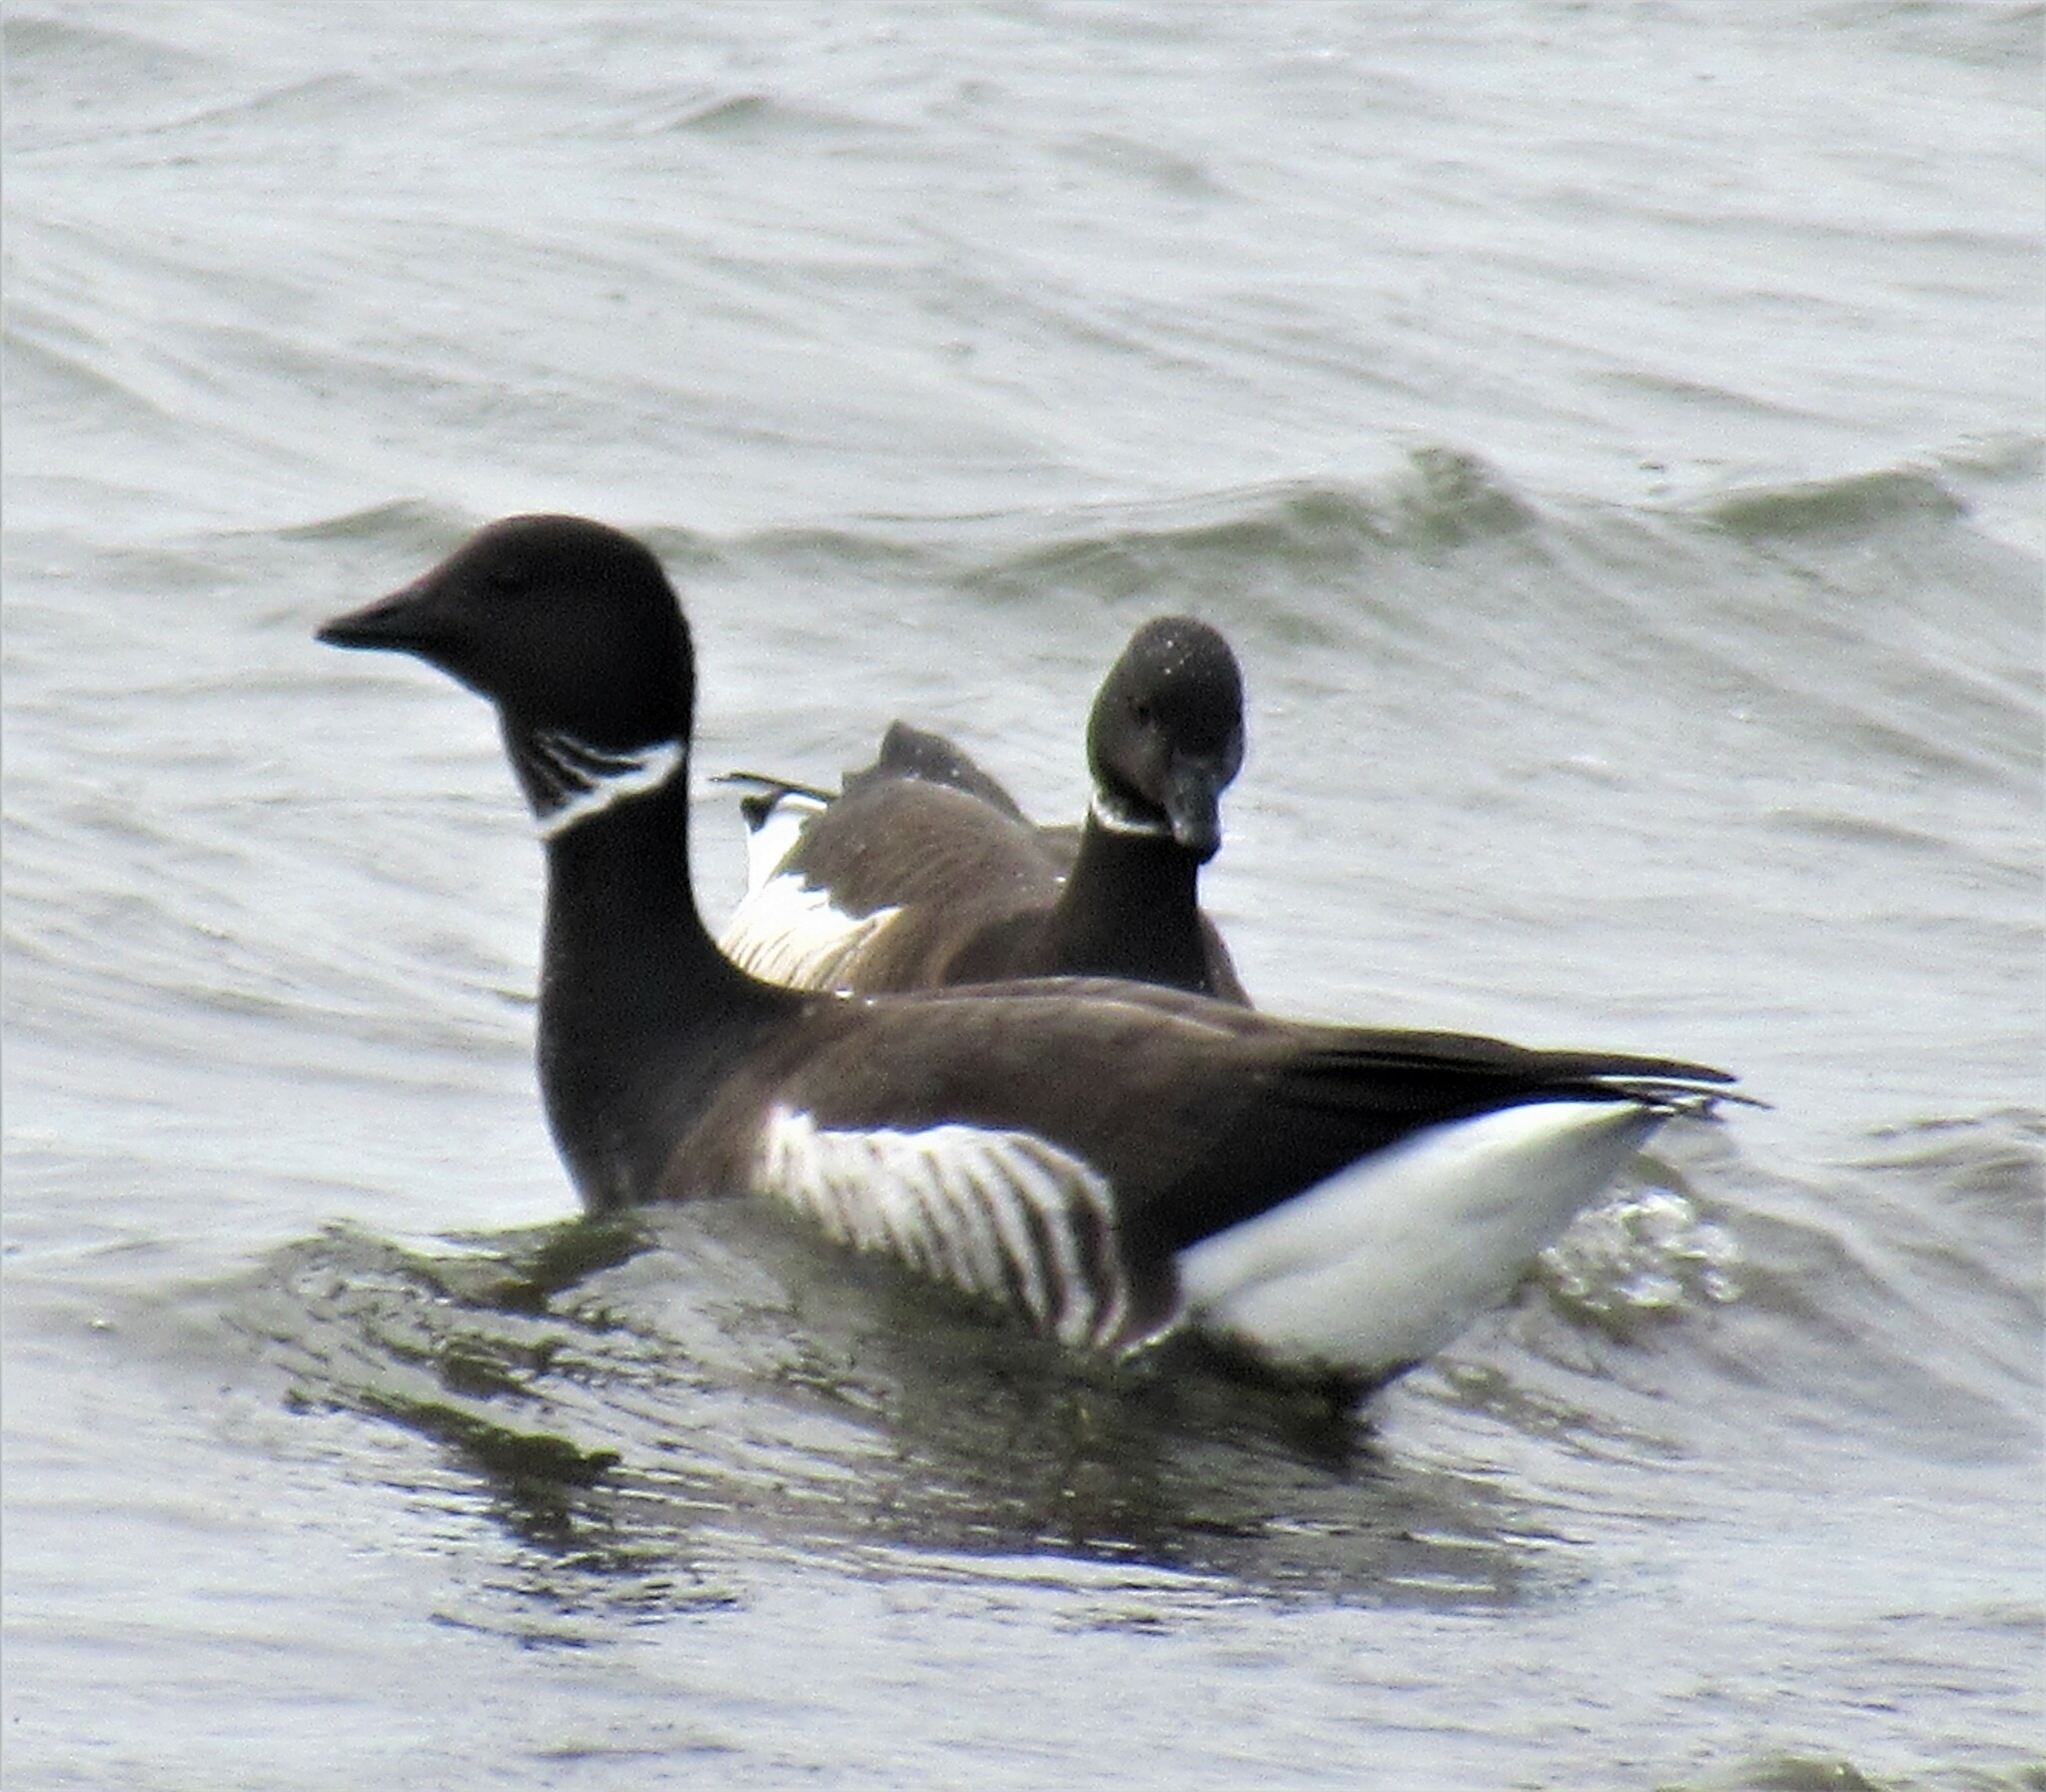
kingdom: Animalia
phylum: Chordata
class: Aves
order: Anseriformes
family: Anatidae
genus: Branta
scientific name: Branta bernicla
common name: Brant goose
